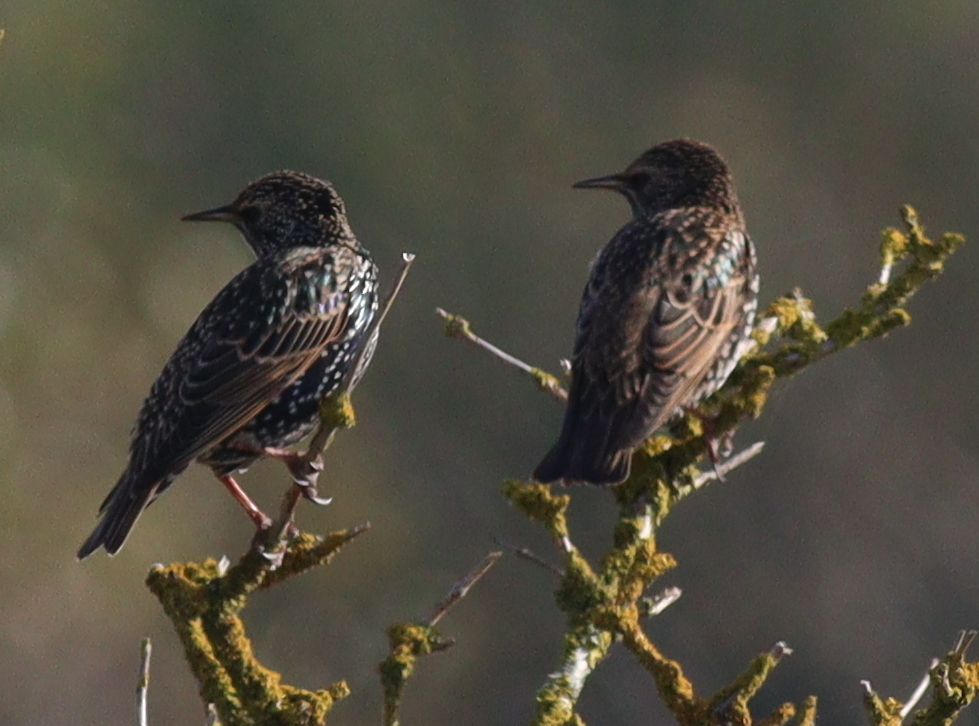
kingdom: Animalia
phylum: Chordata
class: Aves
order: Passeriformes
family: Sturnidae
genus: Sturnus
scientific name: Sturnus vulgaris
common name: Common starling
